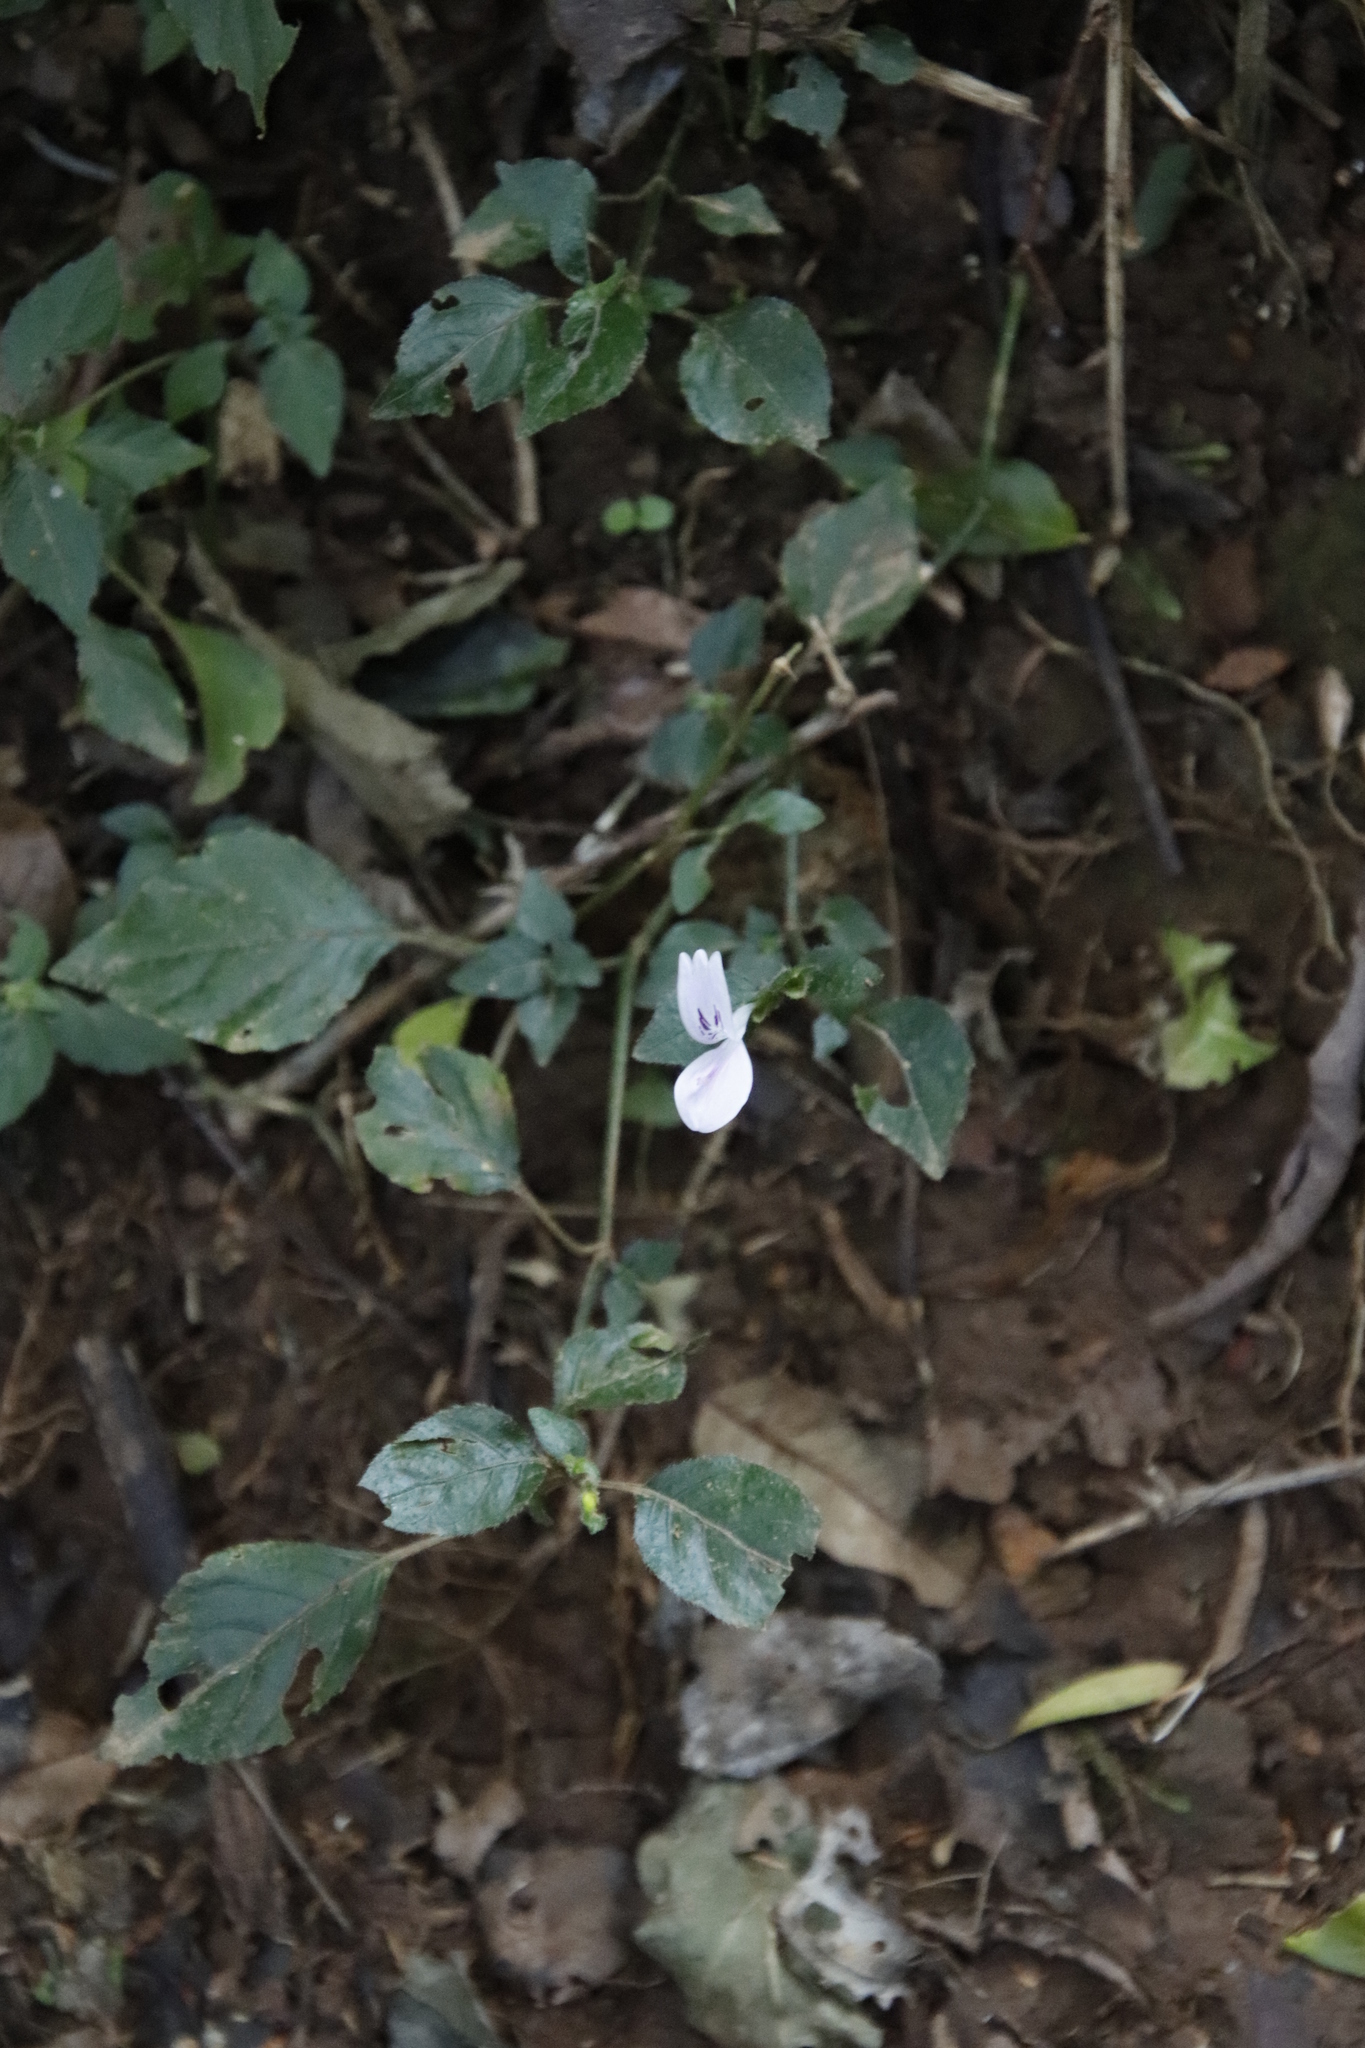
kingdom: Plantae
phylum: Tracheophyta
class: Magnoliopsida
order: Lamiales
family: Acanthaceae
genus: Hypoestes
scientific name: Hypoestes triflora
